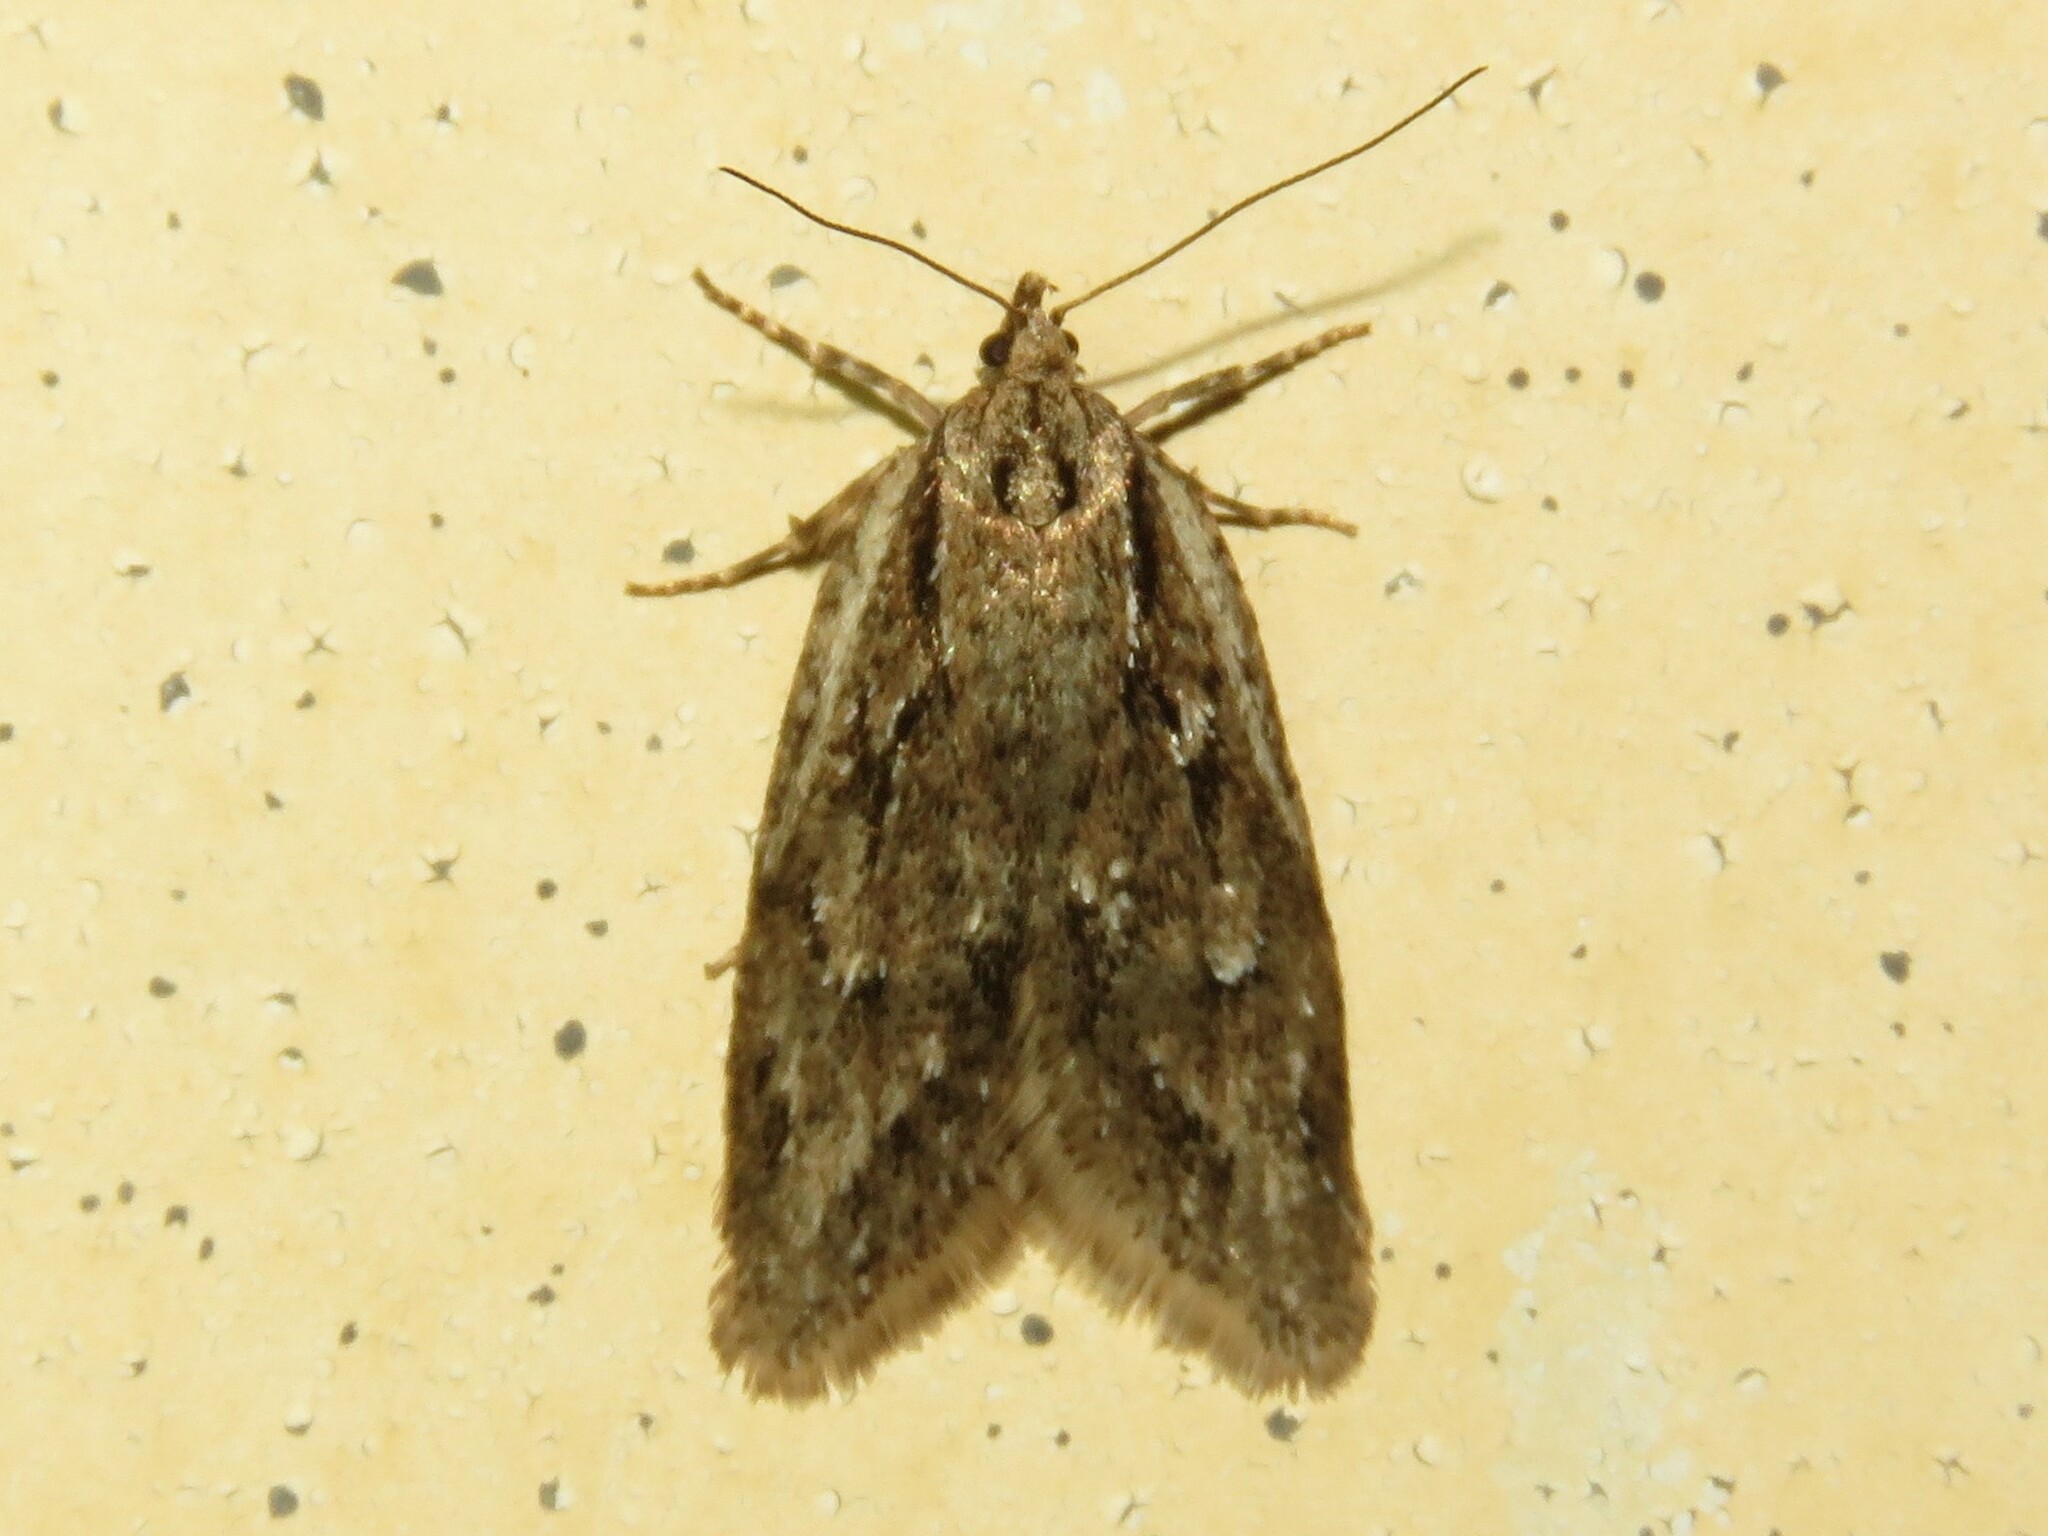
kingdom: Animalia
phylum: Arthropoda
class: Insecta
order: Lepidoptera
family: Depressariidae
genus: Semioscopis
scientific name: Semioscopis aurorella
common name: Aurora flatbody moth
